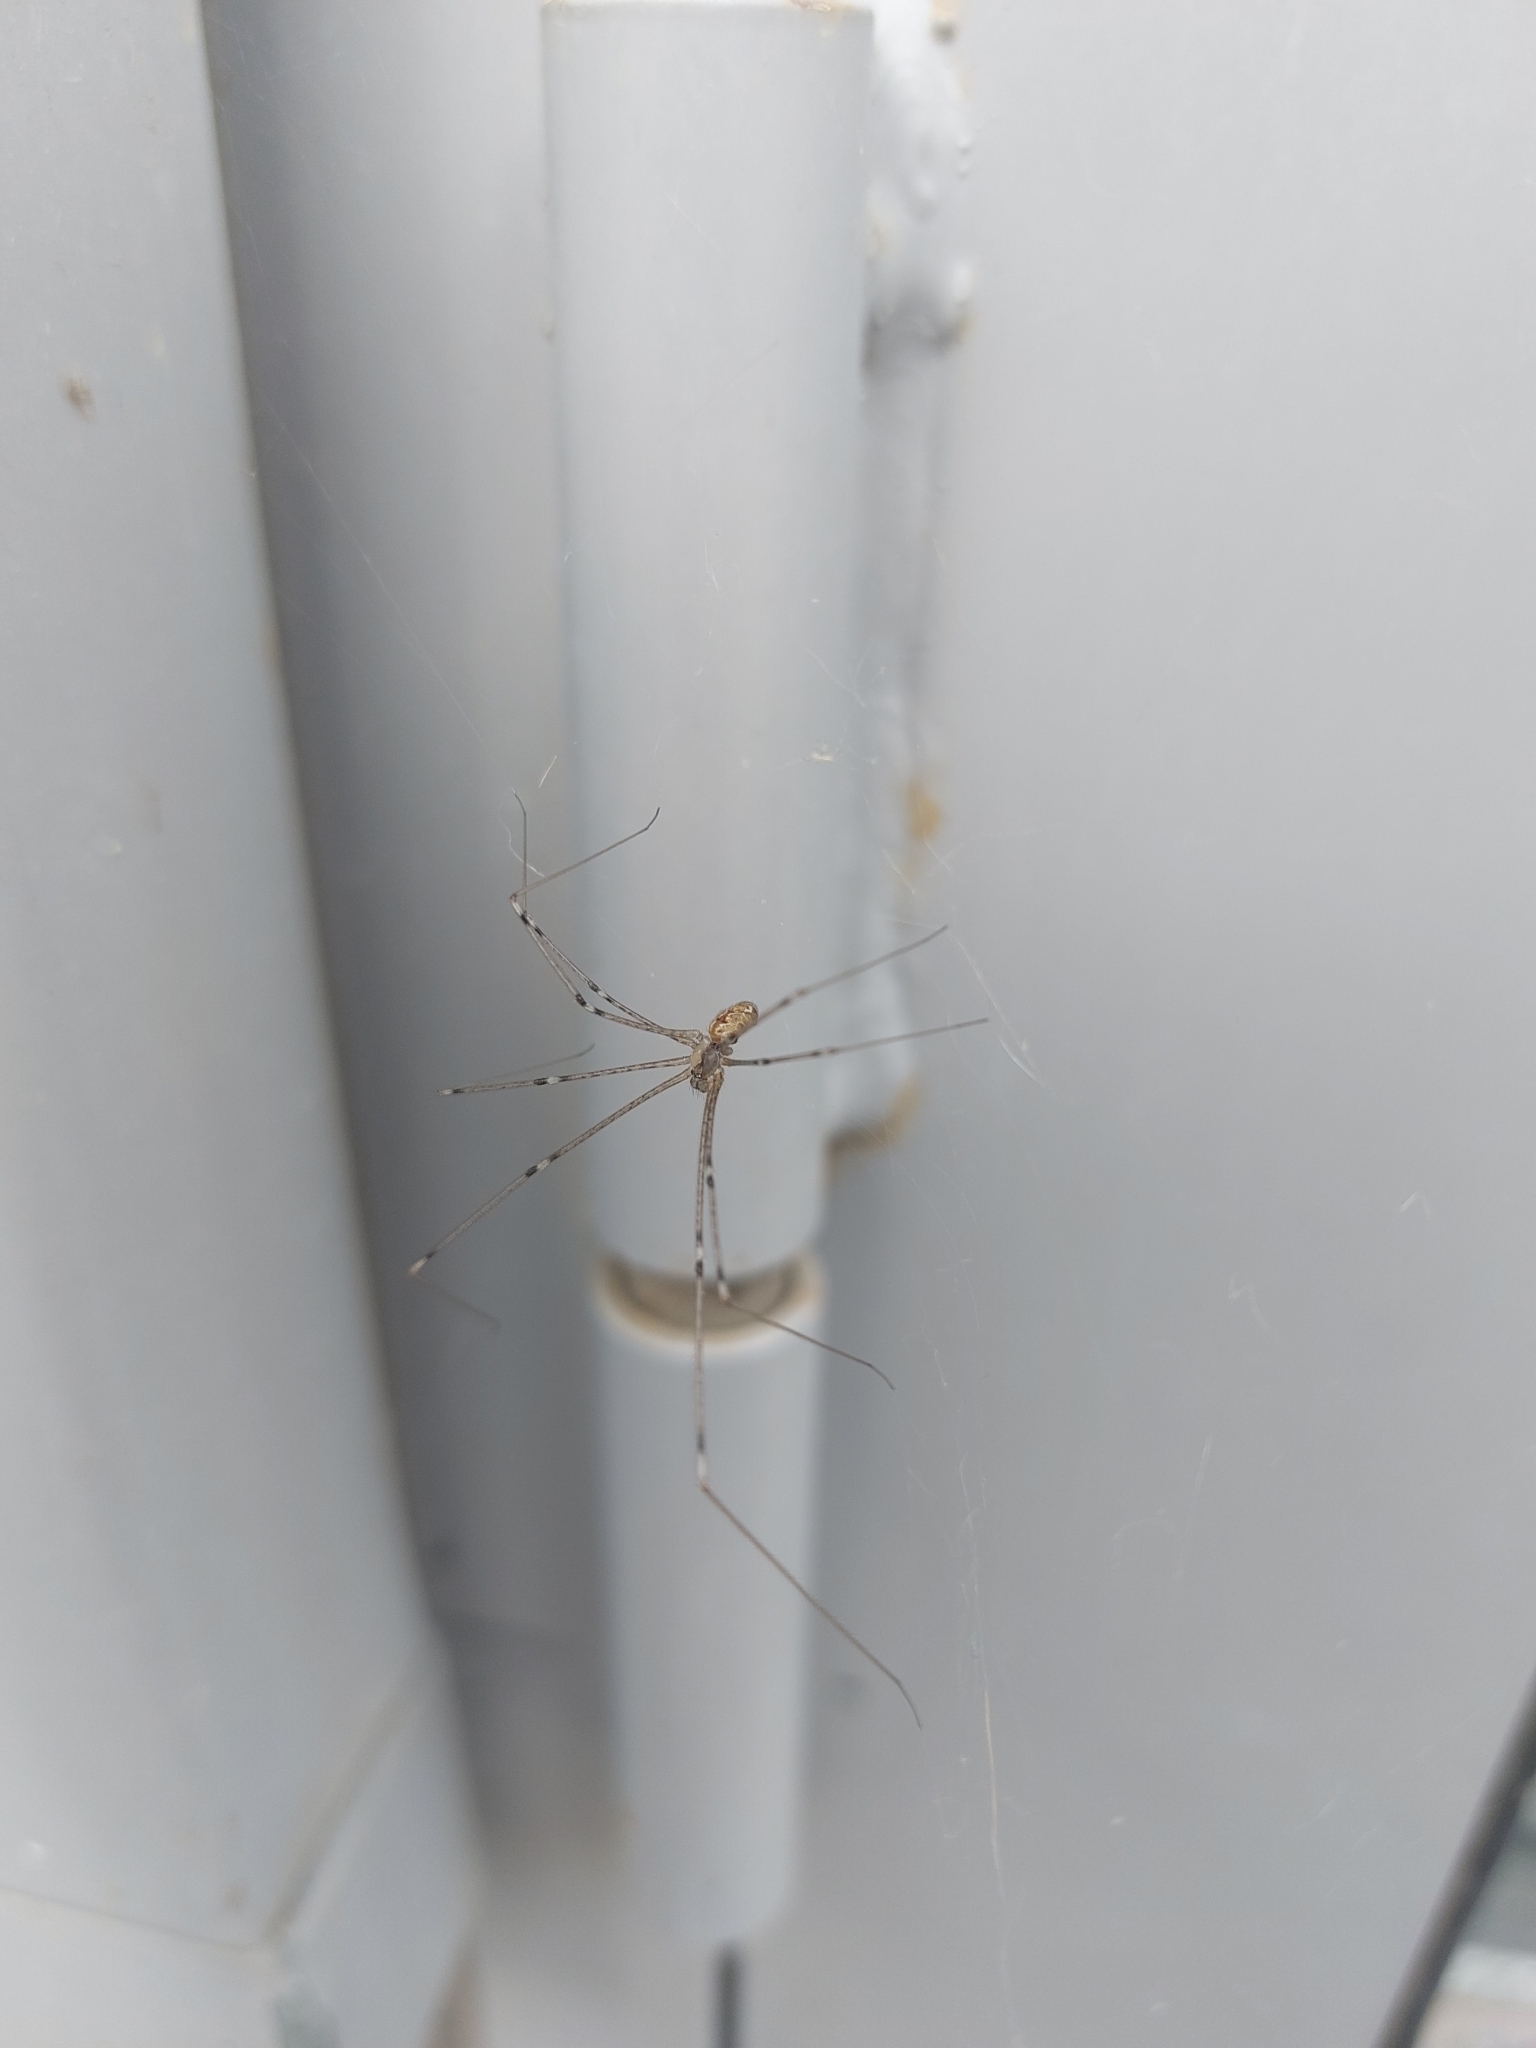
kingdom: Animalia
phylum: Arthropoda
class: Arachnida
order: Araneae
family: Pholcidae
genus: Holocnemus
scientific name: Holocnemus pluchei
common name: Marbled cellar spider
